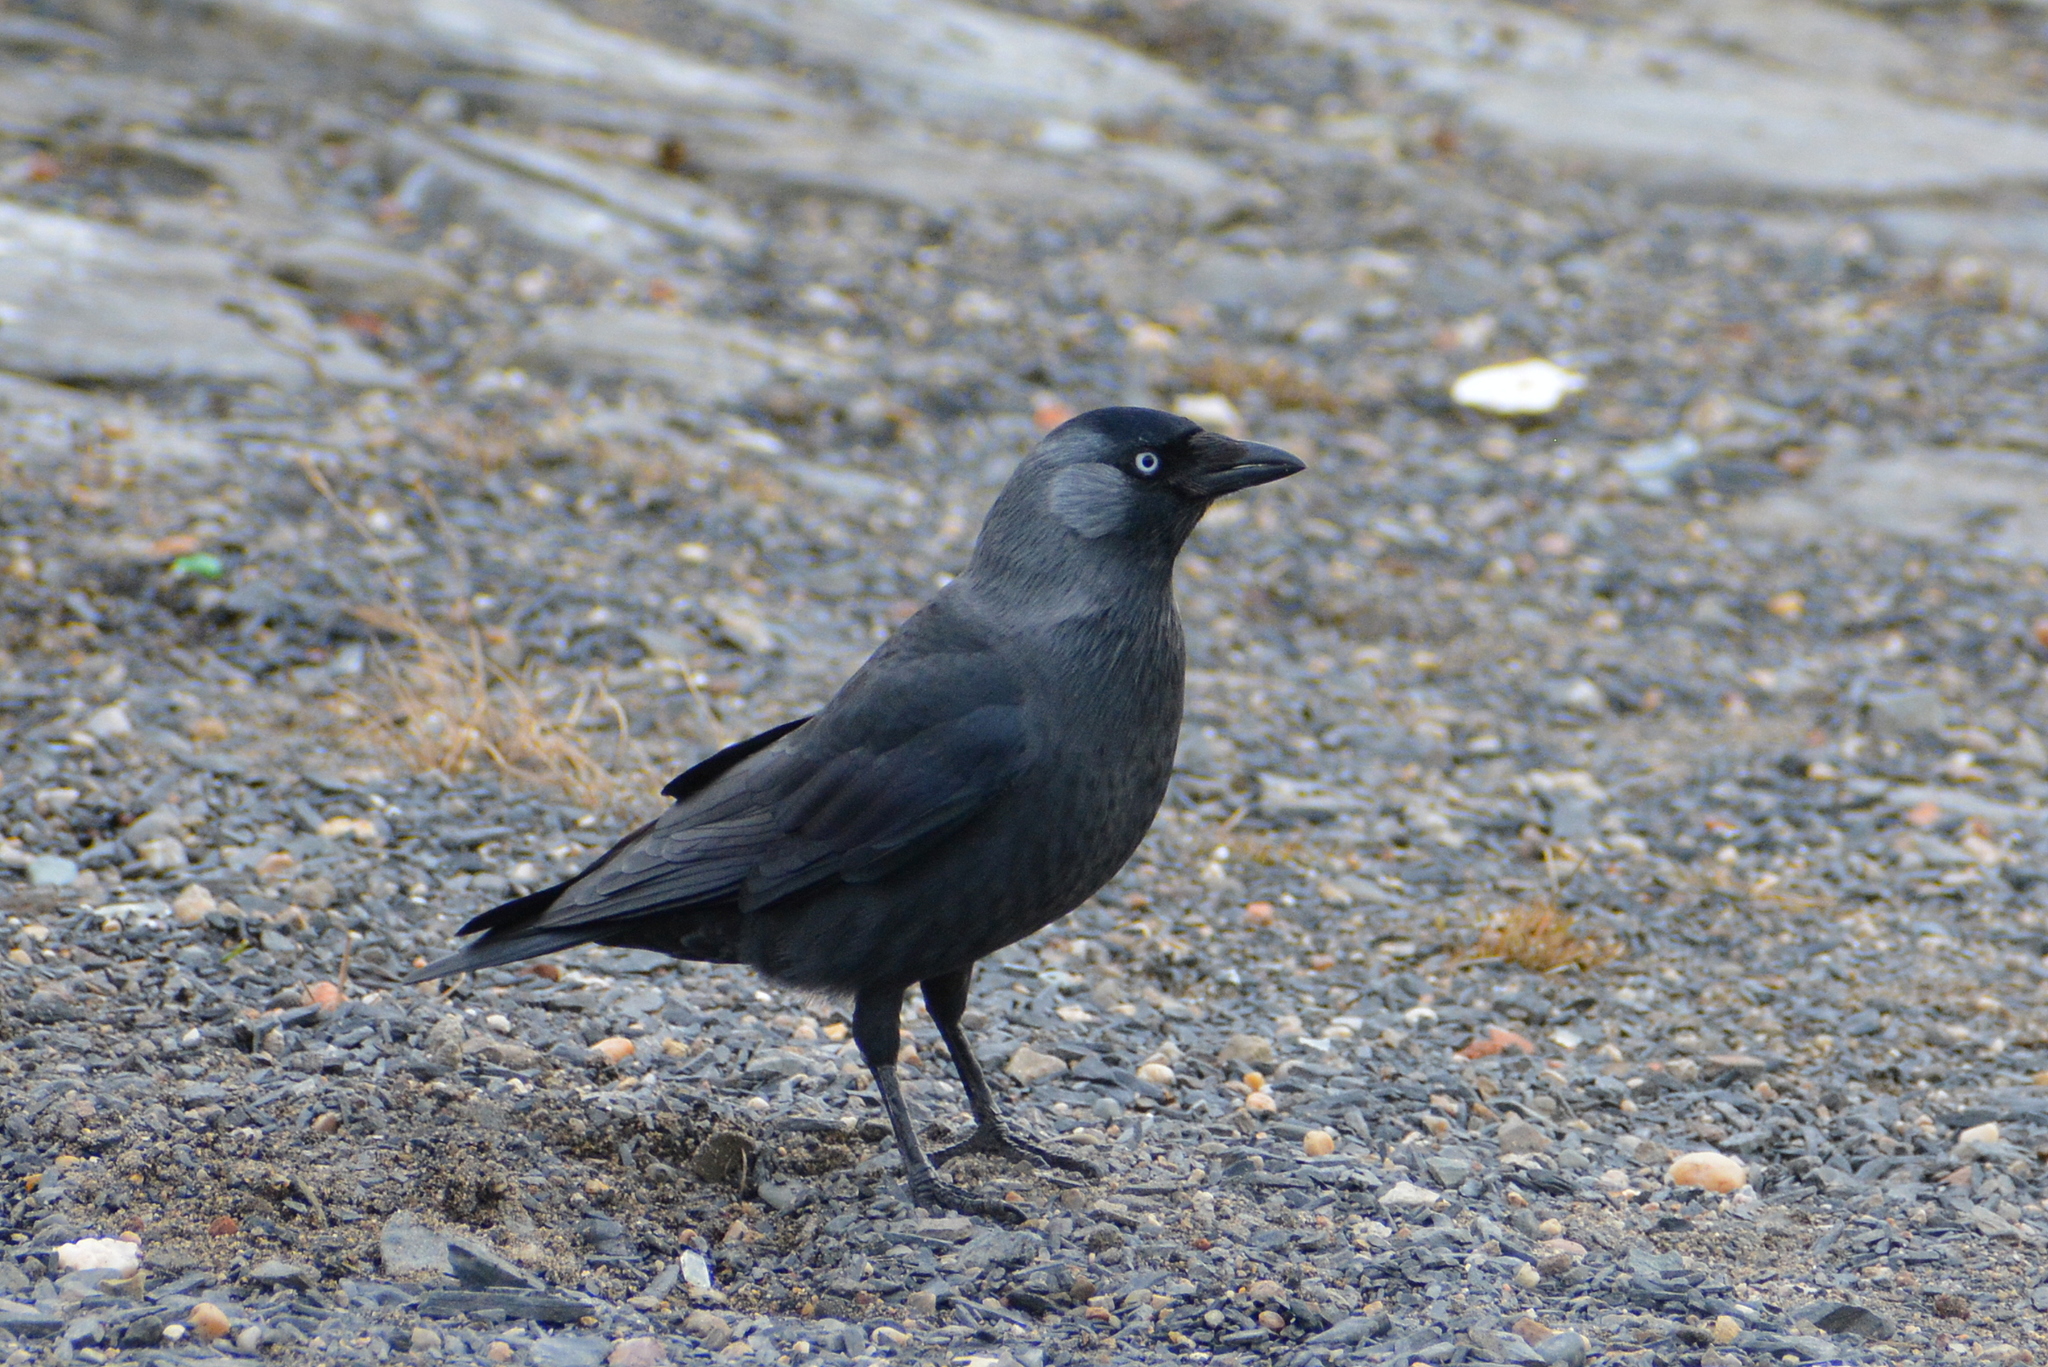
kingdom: Animalia
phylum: Chordata
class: Aves
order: Passeriformes
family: Corvidae
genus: Coloeus
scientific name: Coloeus monedula
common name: Western jackdaw
